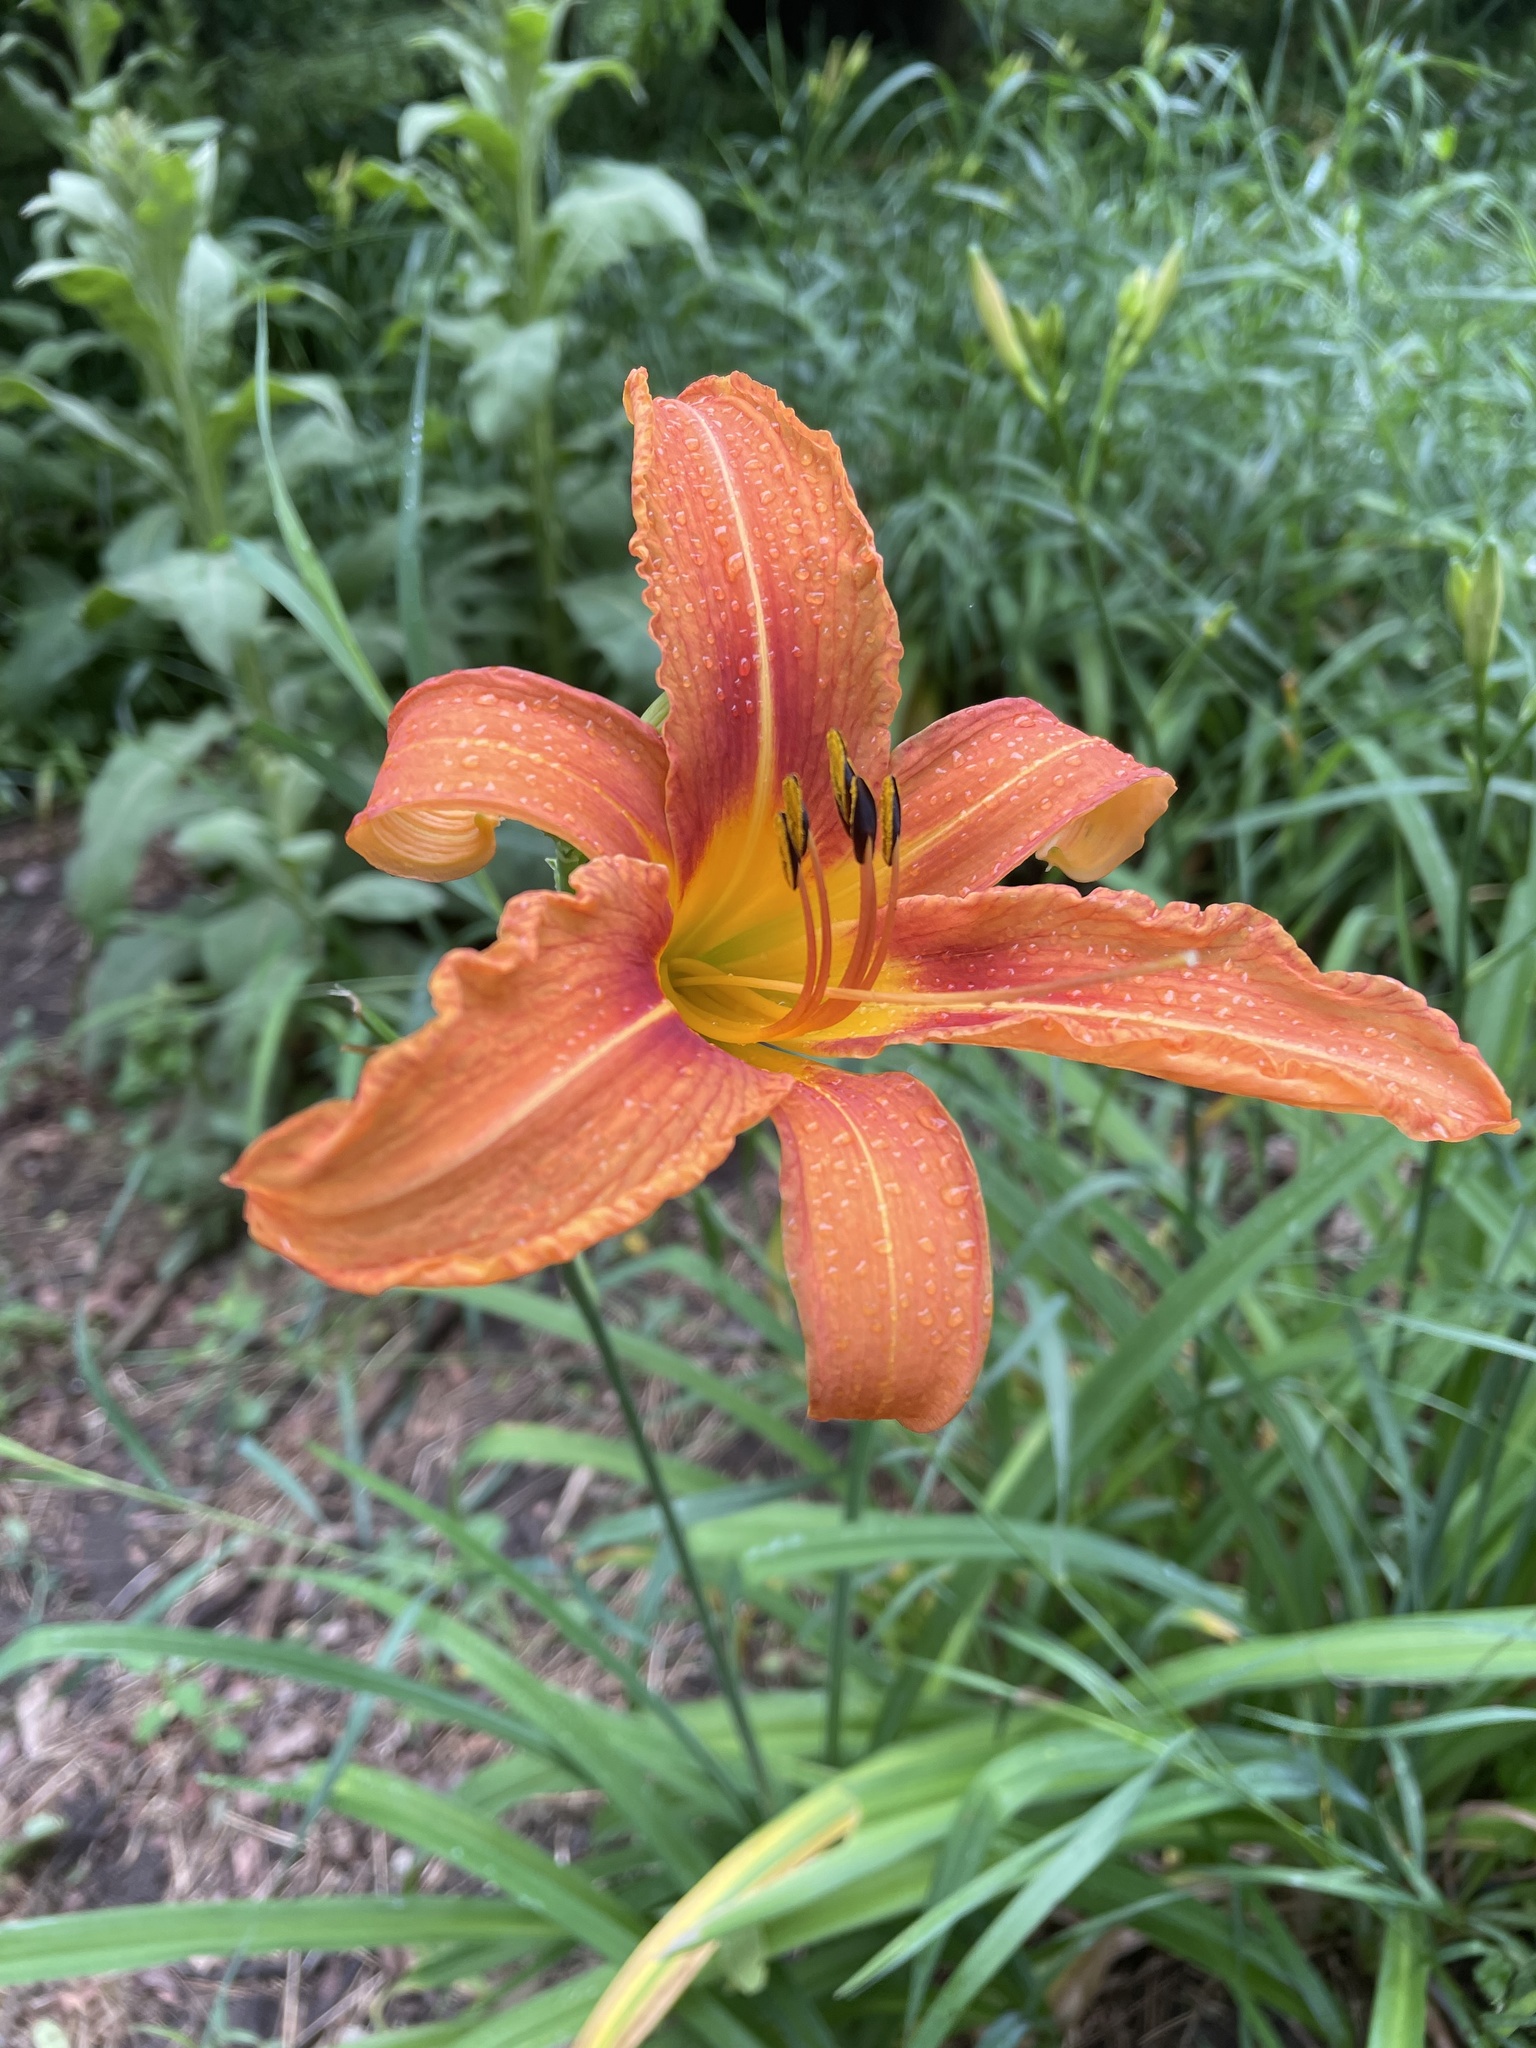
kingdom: Plantae
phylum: Tracheophyta
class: Liliopsida
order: Asparagales
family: Asphodelaceae
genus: Hemerocallis
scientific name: Hemerocallis fulva
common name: Orange day-lily
